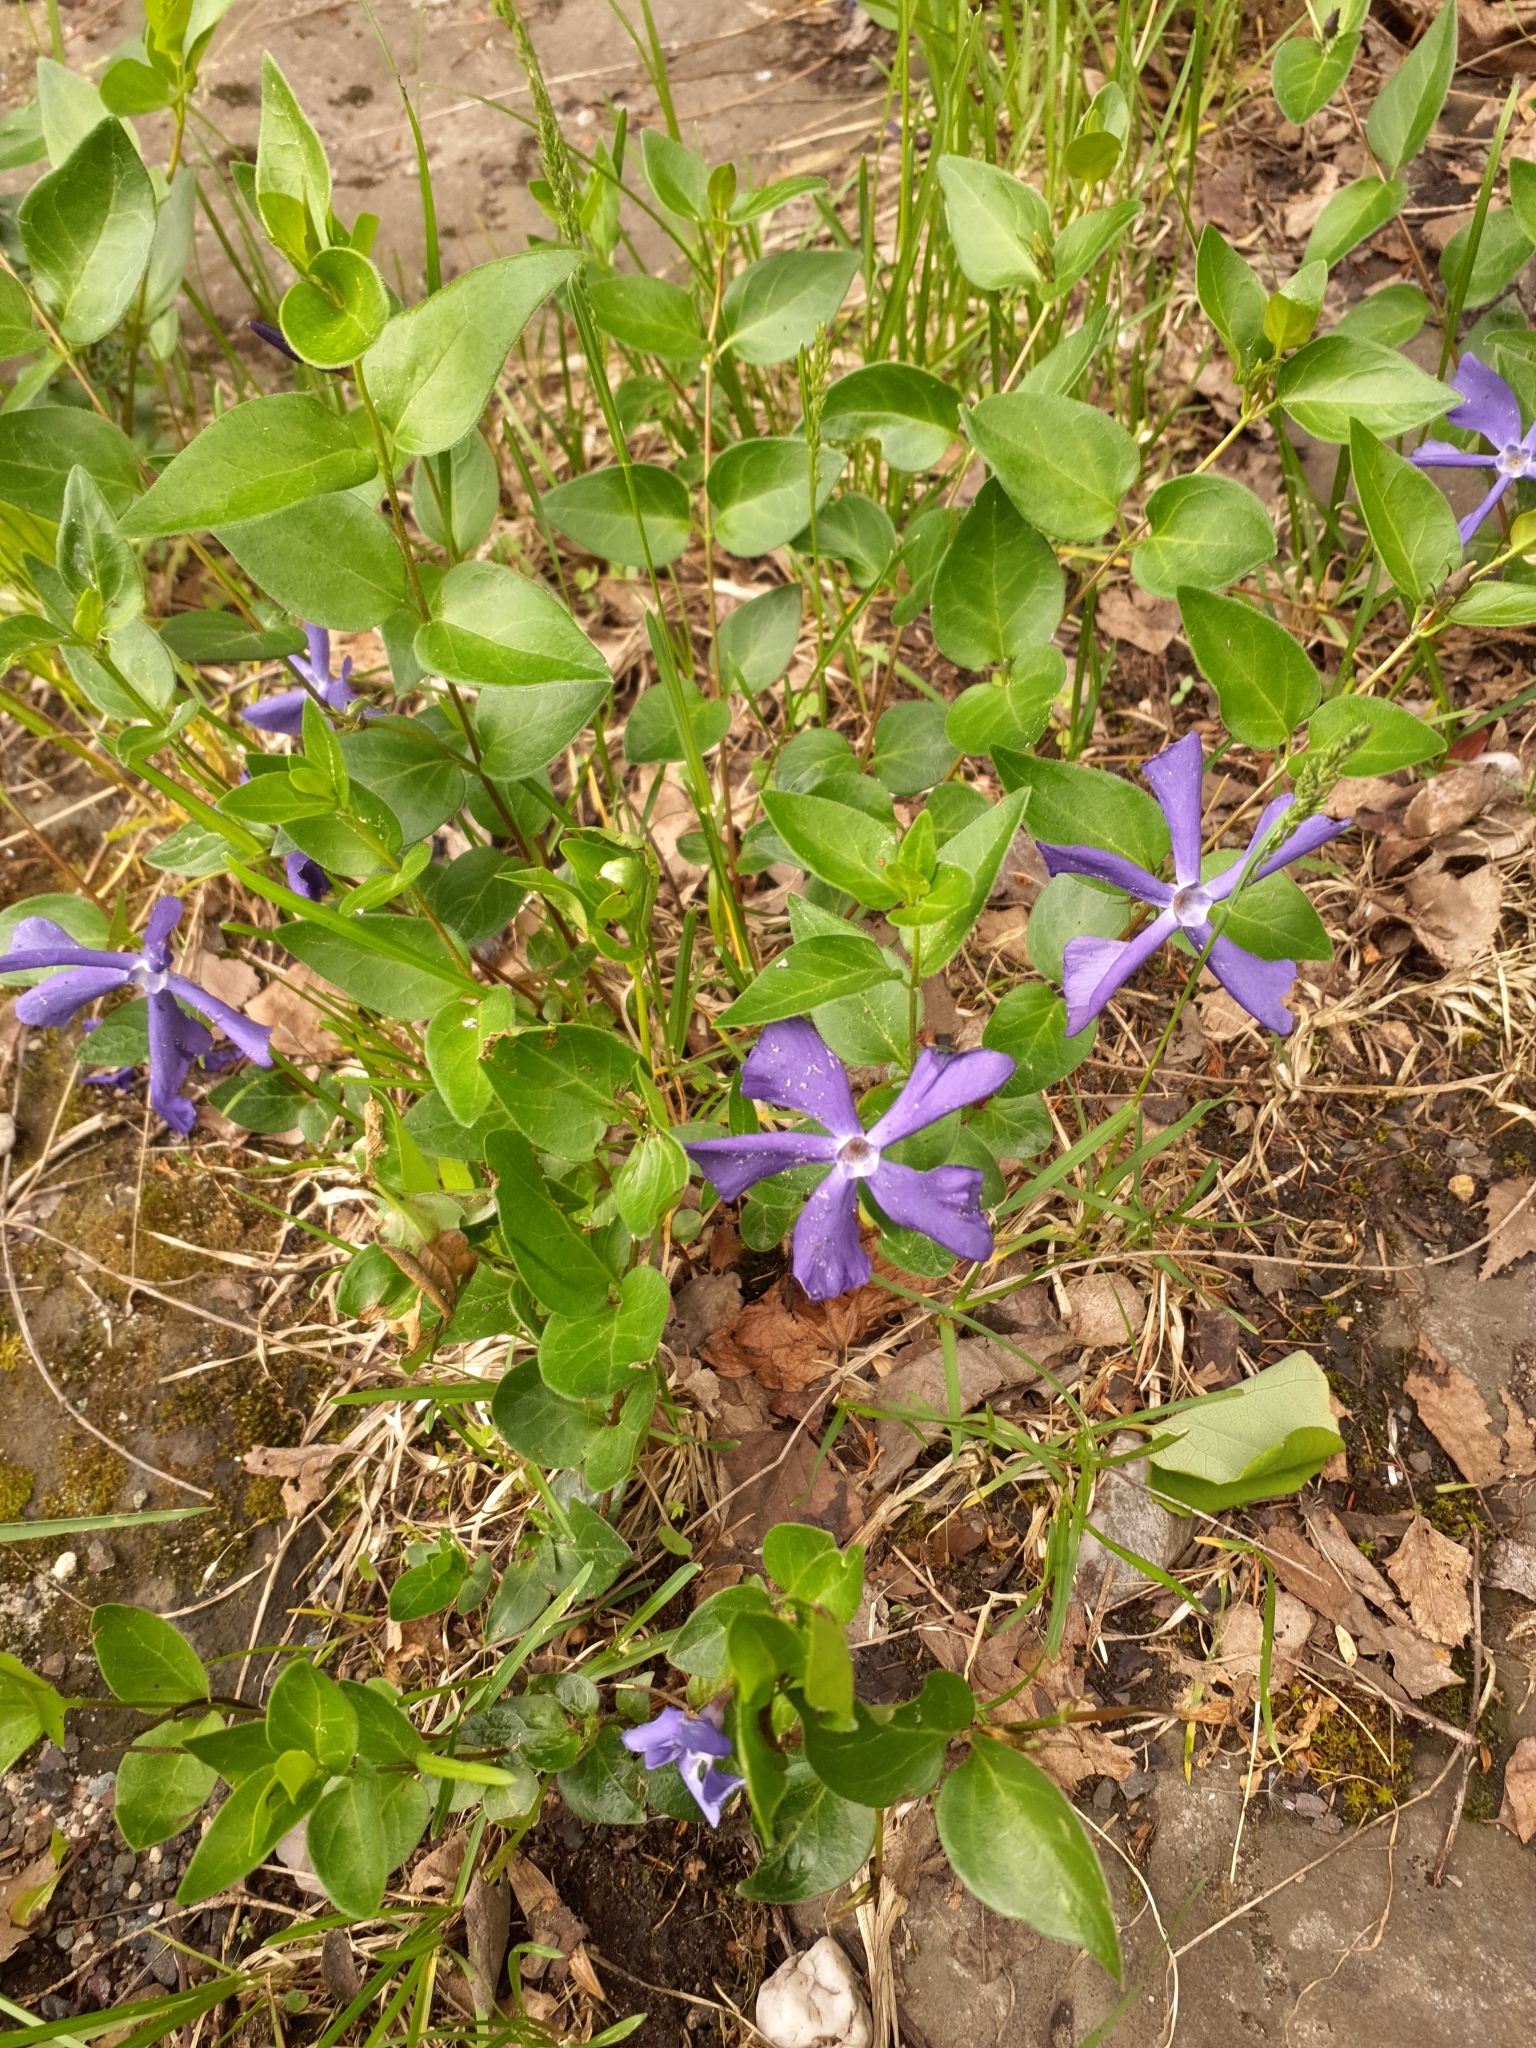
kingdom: Plantae
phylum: Tracheophyta
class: Magnoliopsida
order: Gentianales
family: Apocynaceae
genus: Vinca
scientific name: Vinca major
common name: Greater periwinkle
